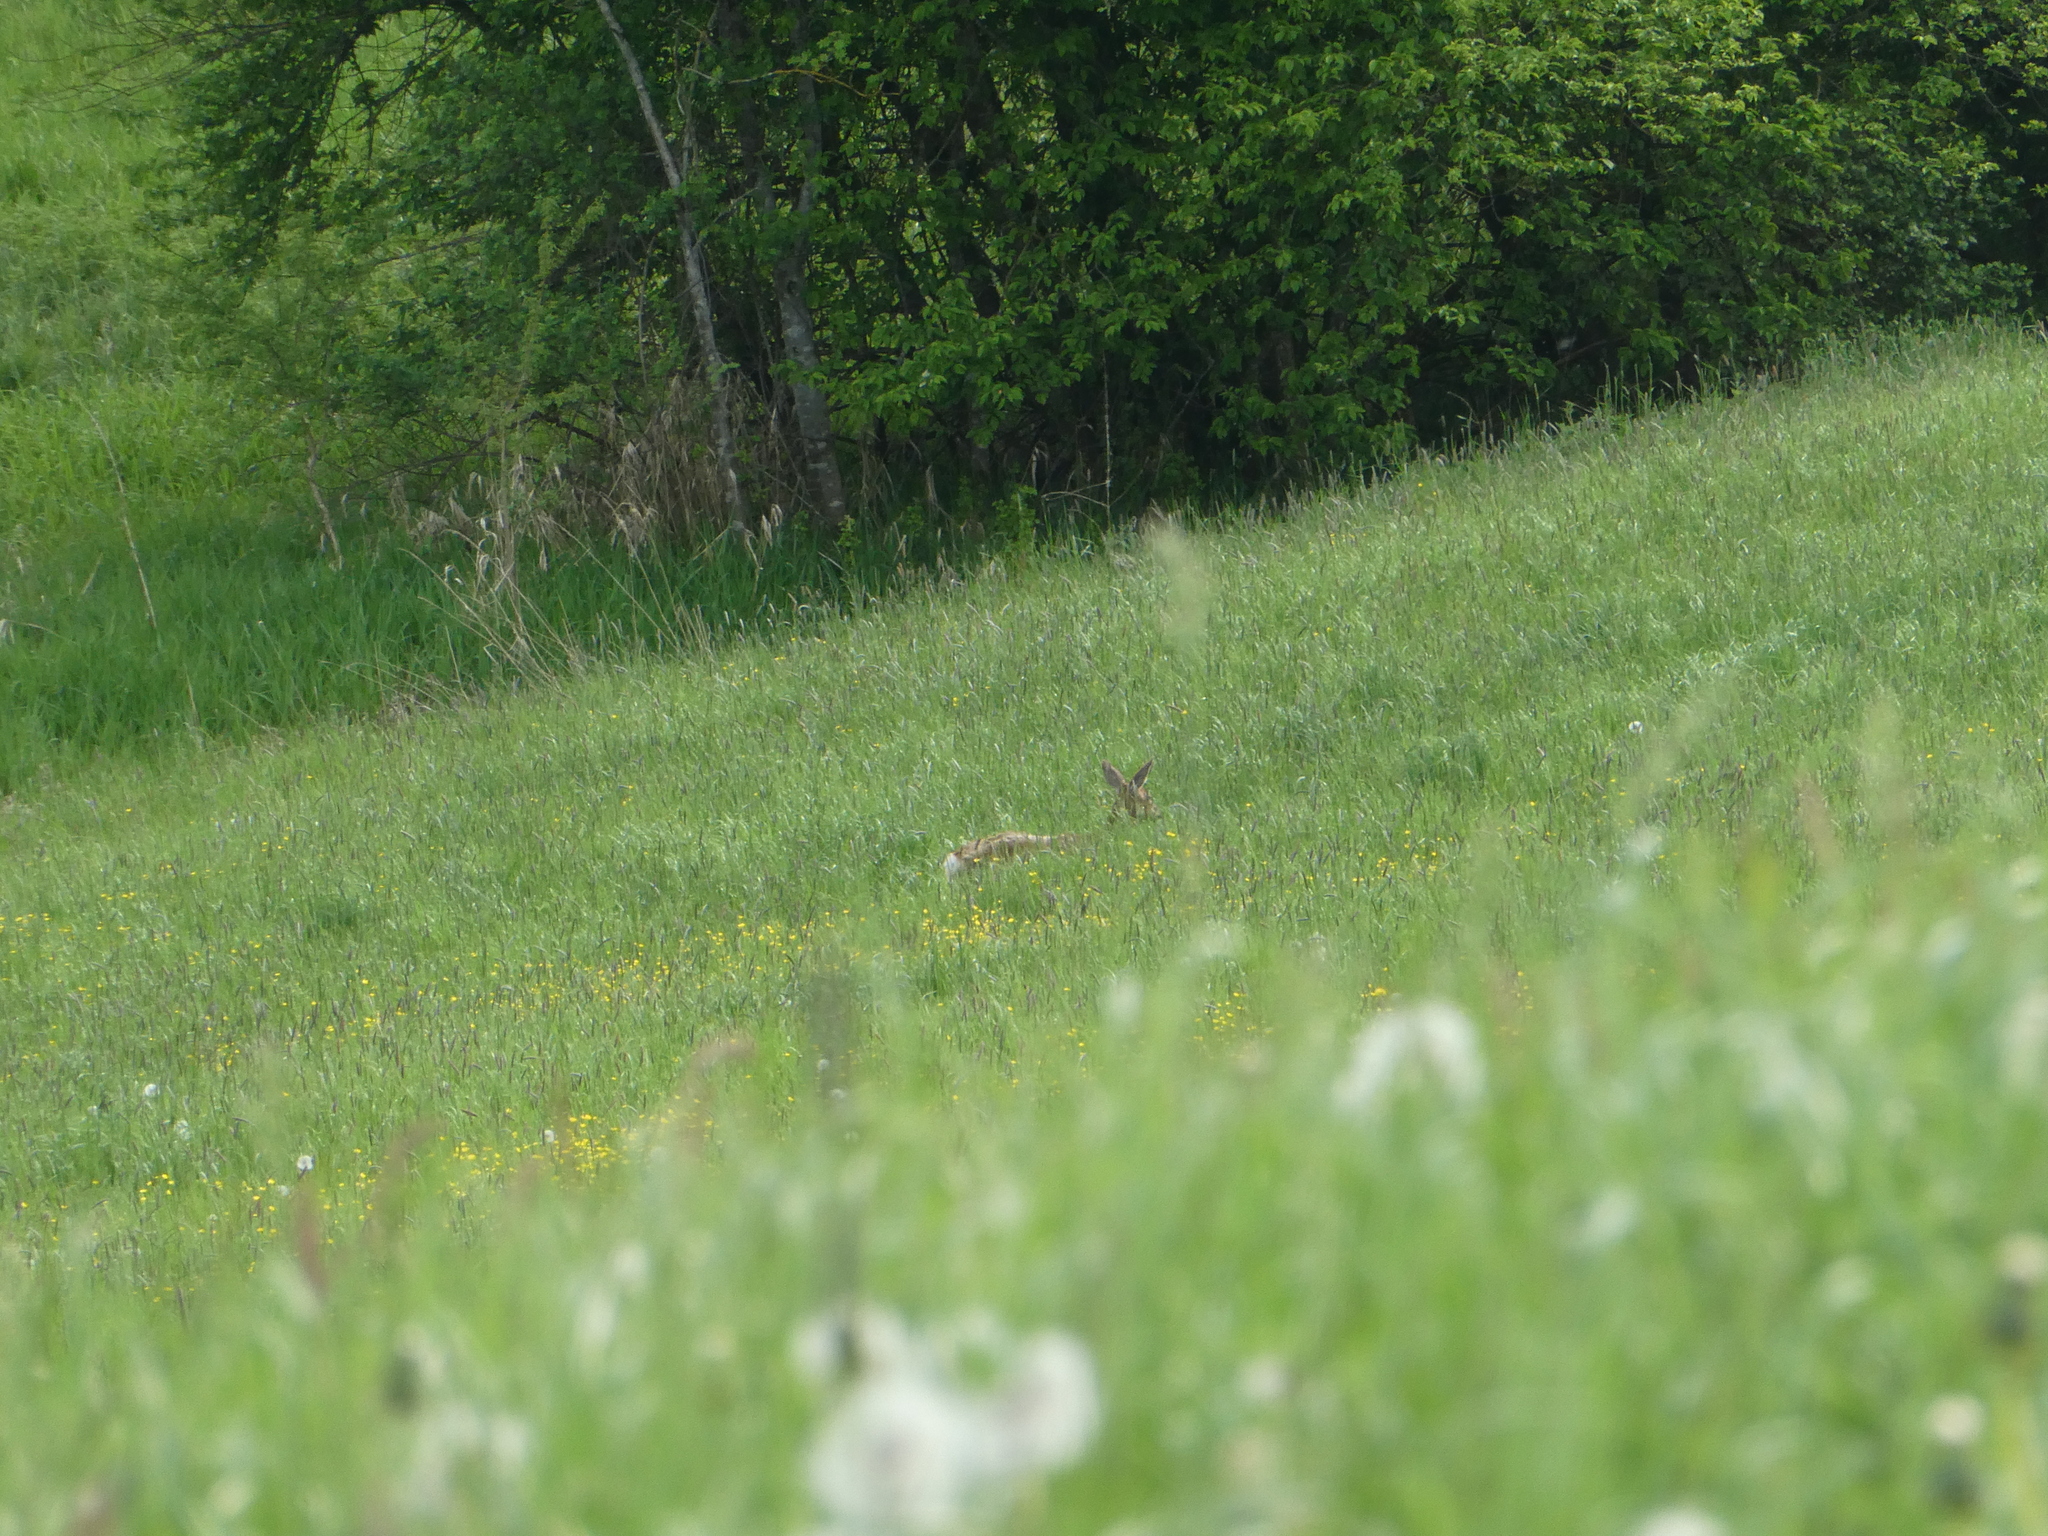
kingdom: Animalia
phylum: Chordata
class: Mammalia
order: Artiodactyla
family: Cervidae
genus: Capreolus
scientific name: Capreolus capreolus
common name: Western roe deer
